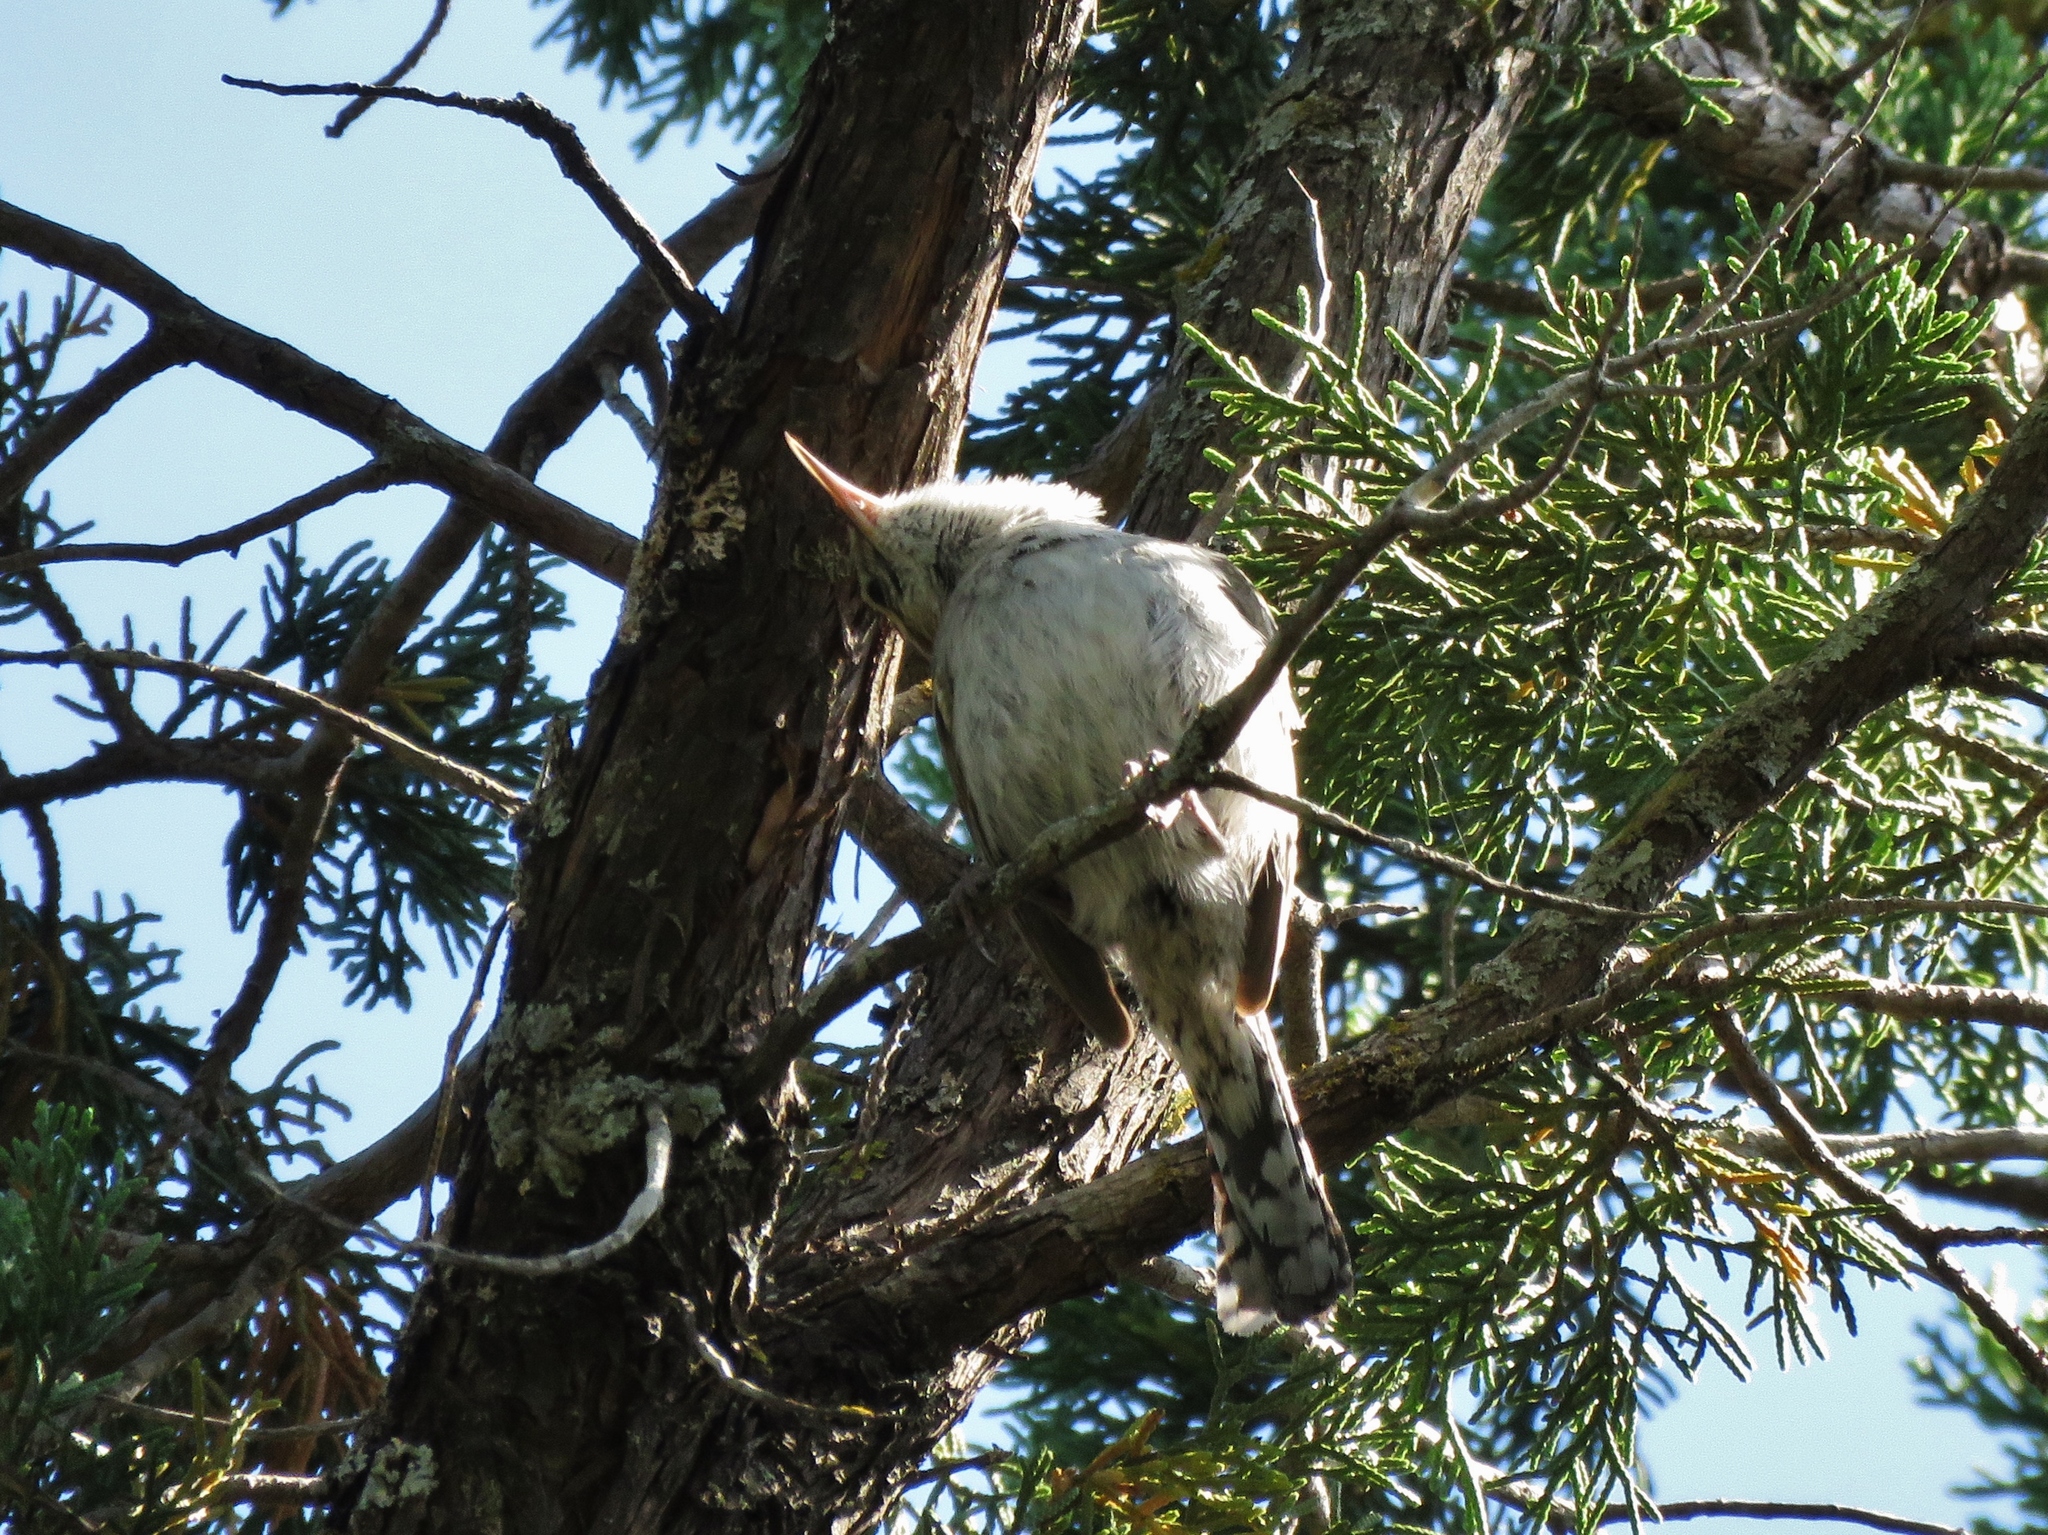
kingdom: Animalia
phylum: Chordata
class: Aves
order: Passeriformes
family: Troglodytidae
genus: Thryomanes
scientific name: Thryomanes bewickii
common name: Bewick's wren
